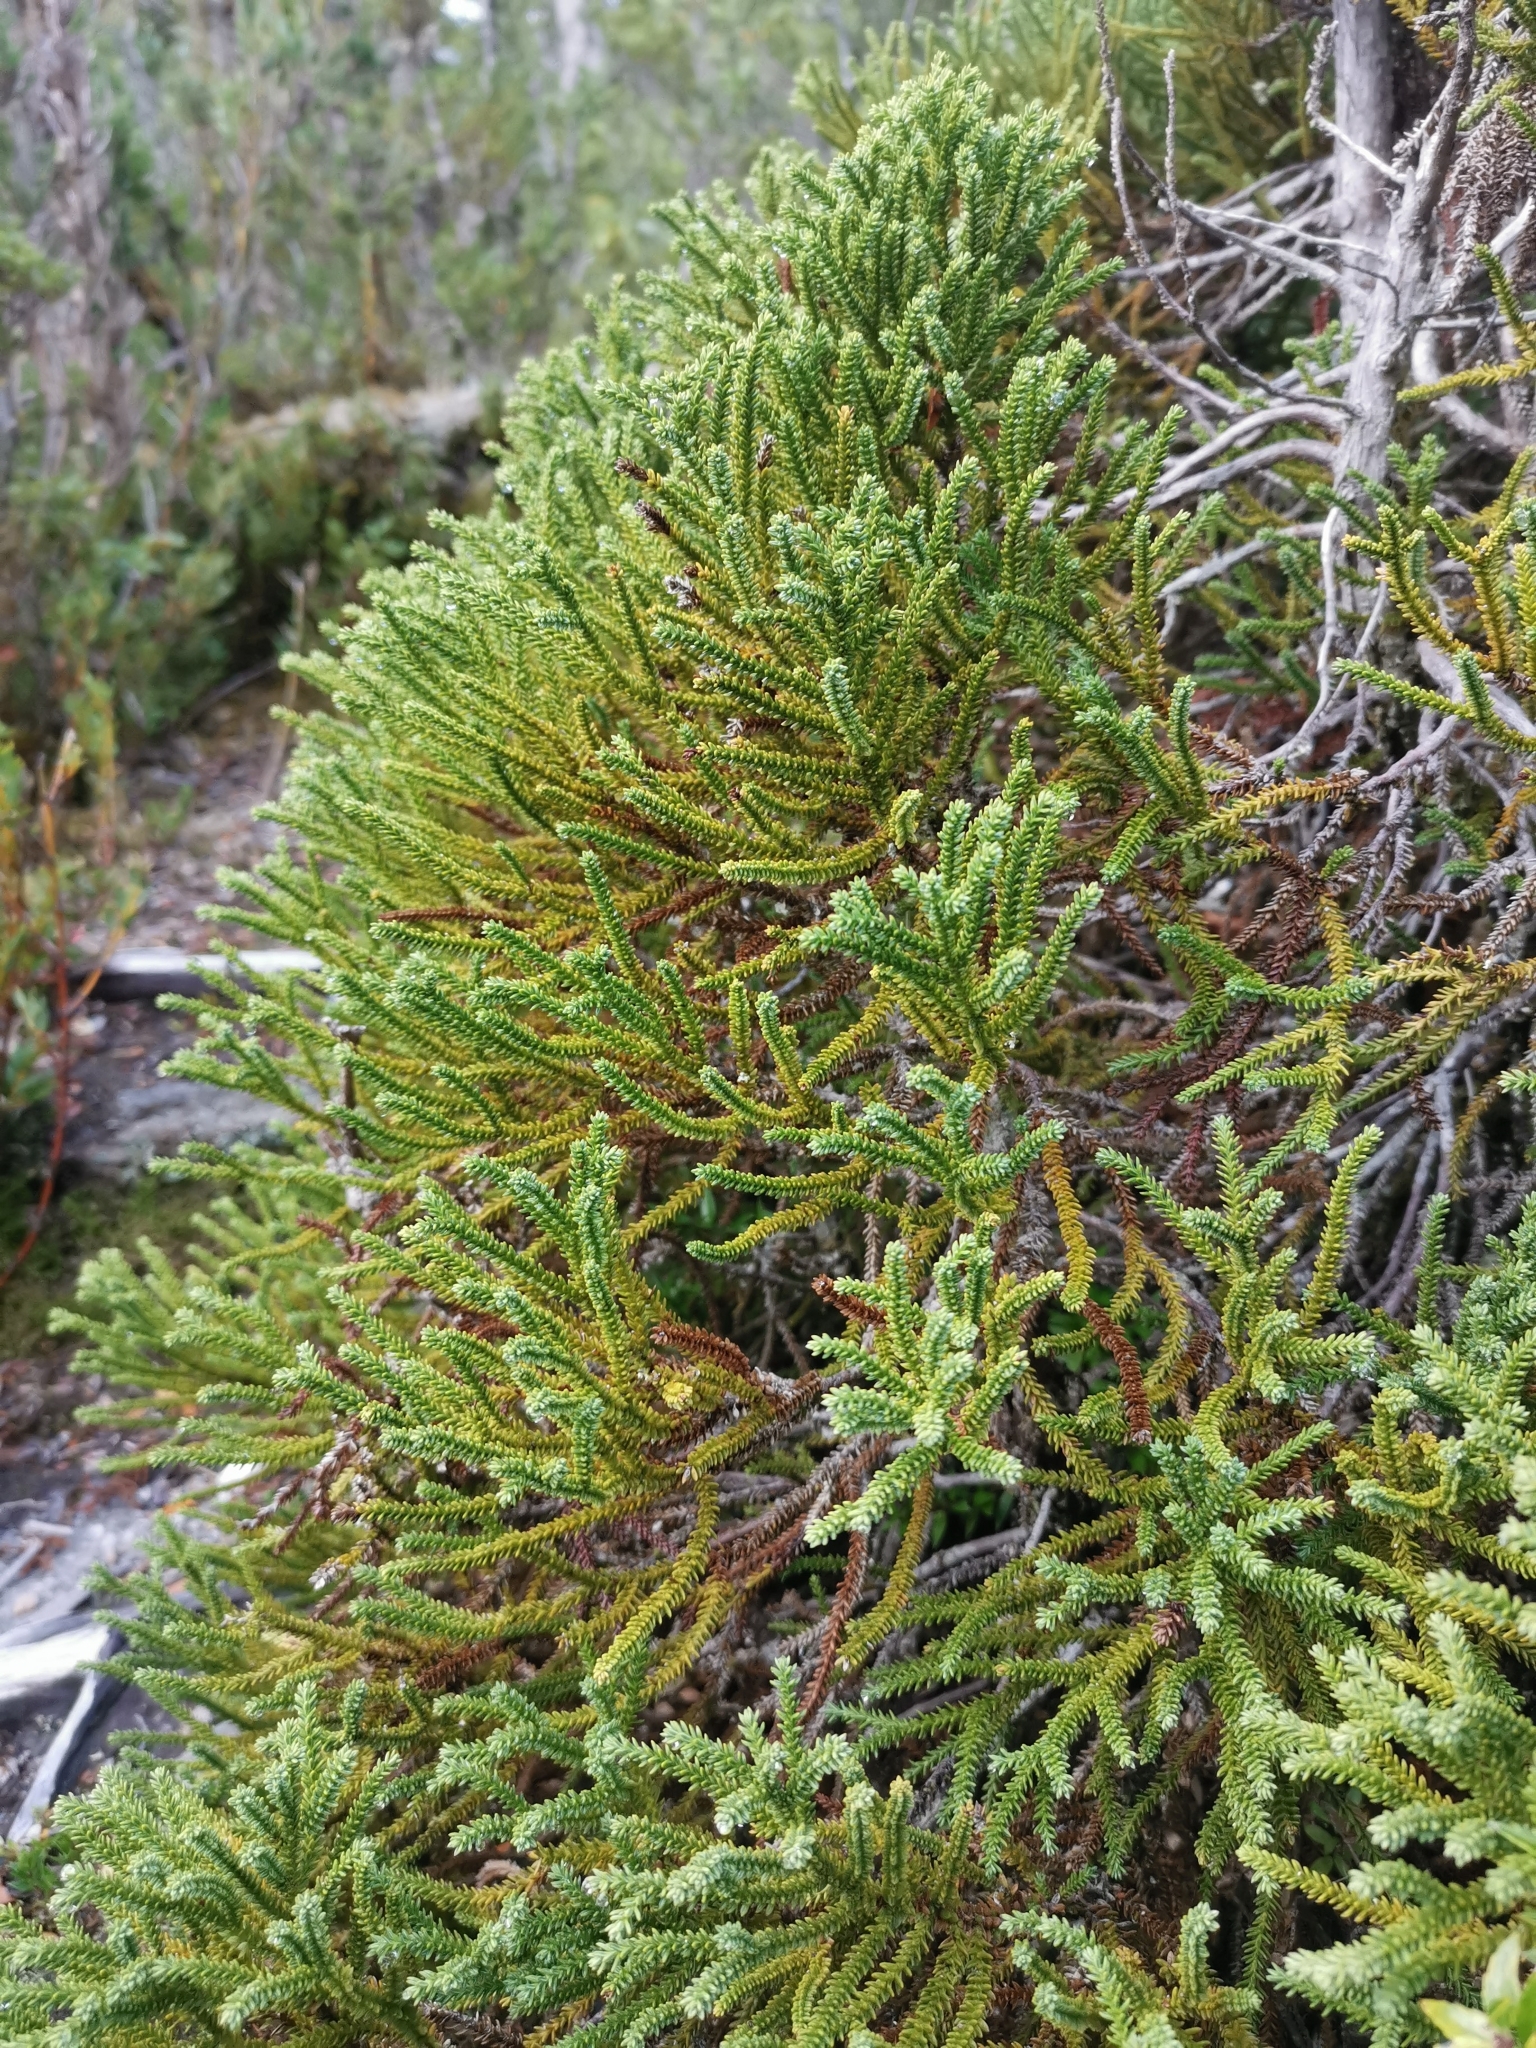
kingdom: Plantae
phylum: Tracheophyta
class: Pinopsida
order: Pinales
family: Cupressaceae
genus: Fitzroya
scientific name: Fitzroya cupressoides
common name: Patagonian cypress
